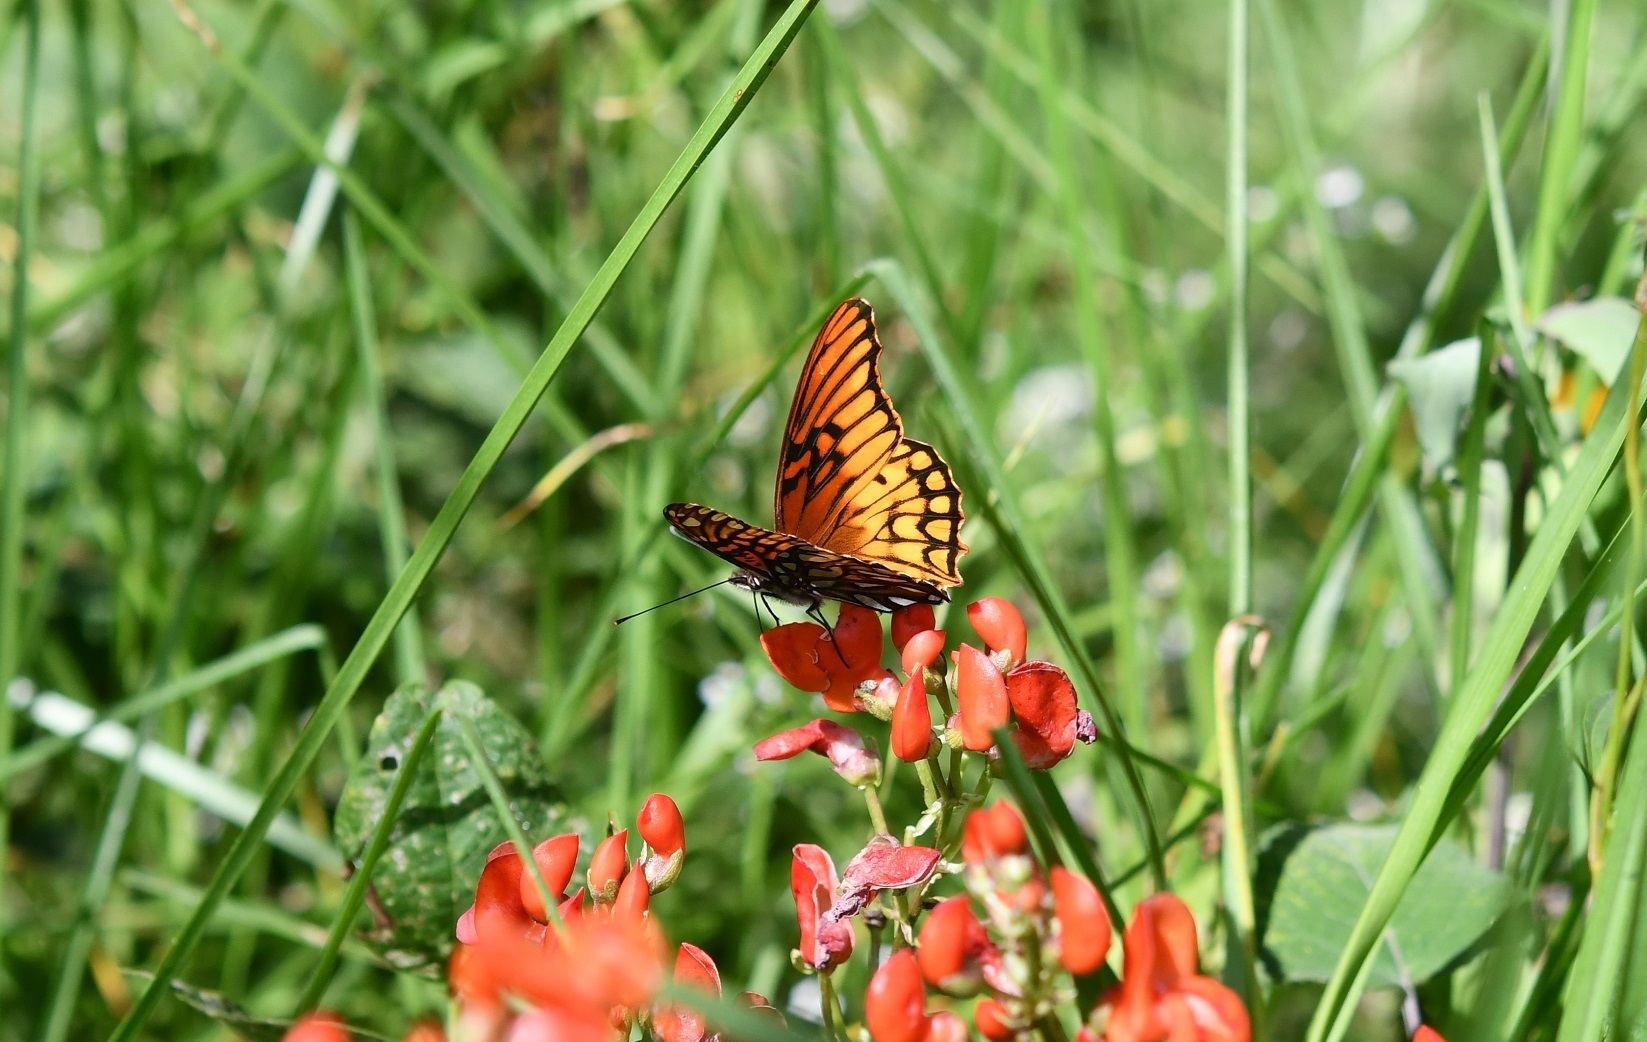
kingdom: Animalia
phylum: Arthropoda
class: Insecta
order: Lepidoptera
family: Nymphalidae
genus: Dione
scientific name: Dione moneta
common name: Mexican silverspot
